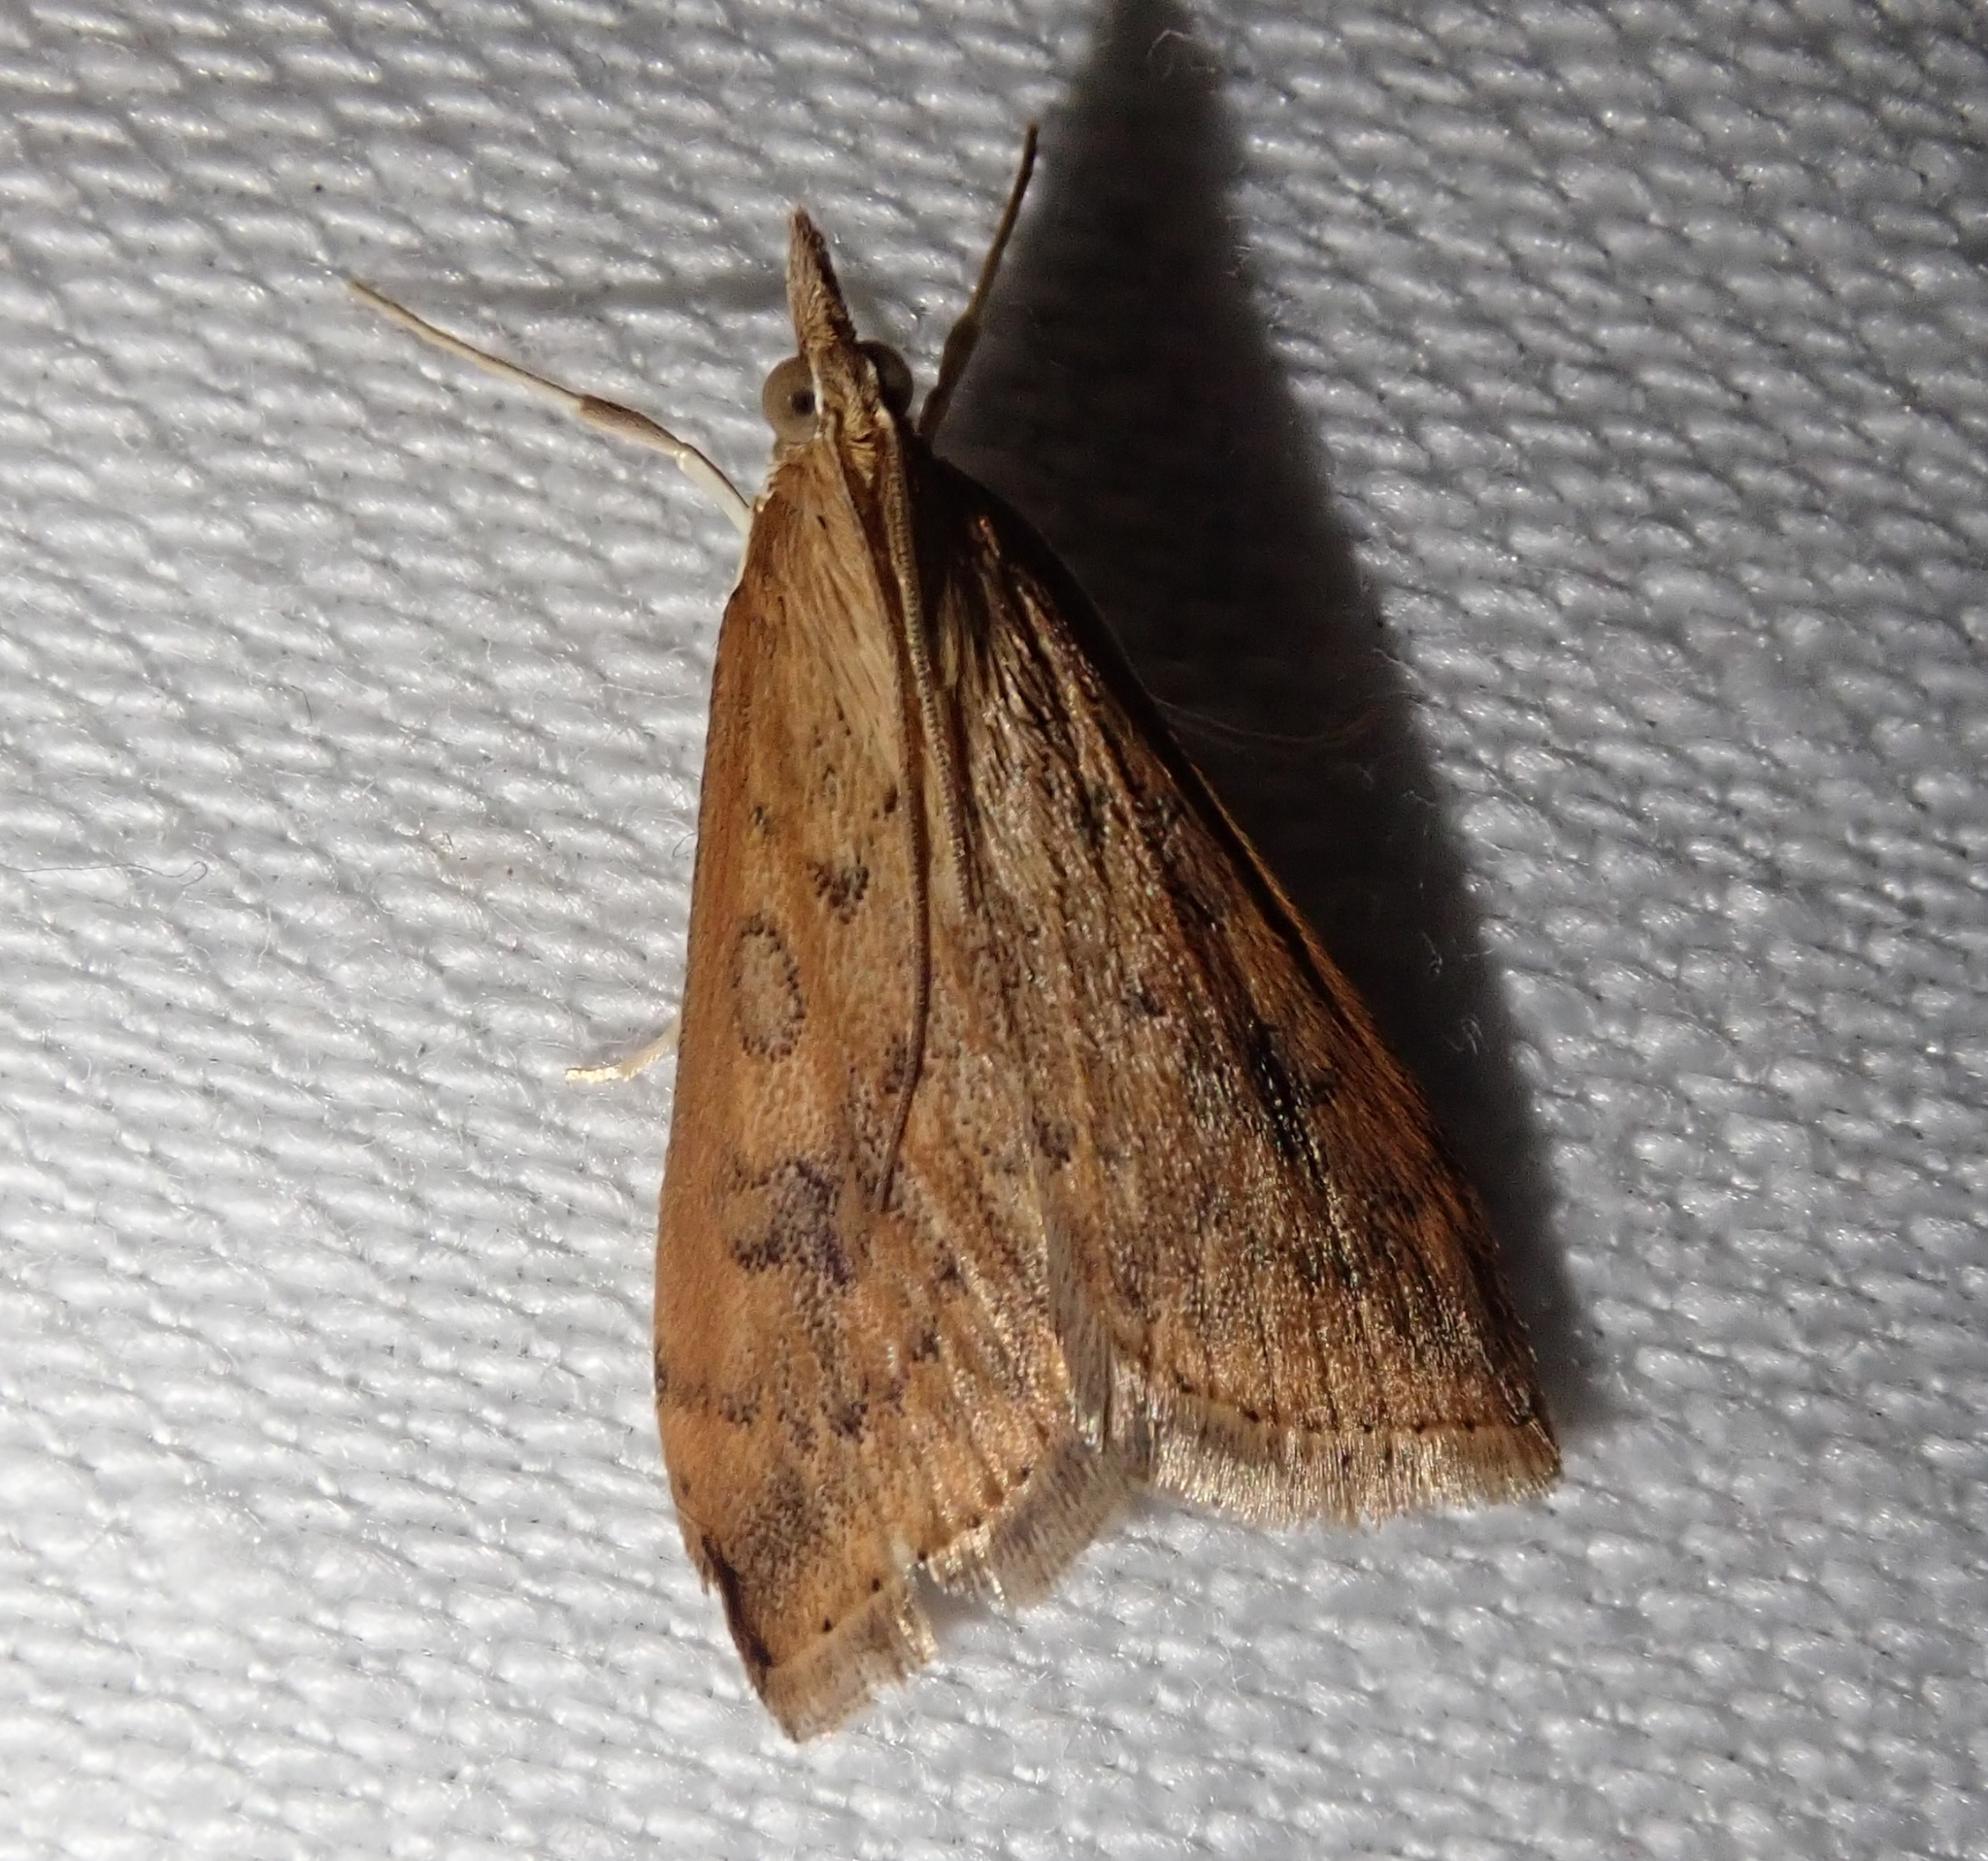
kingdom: Animalia
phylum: Arthropoda
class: Insecta
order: Lepidoptera
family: Crambidae
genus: Udea
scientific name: Udea ferrugalis
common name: Rusty dot
